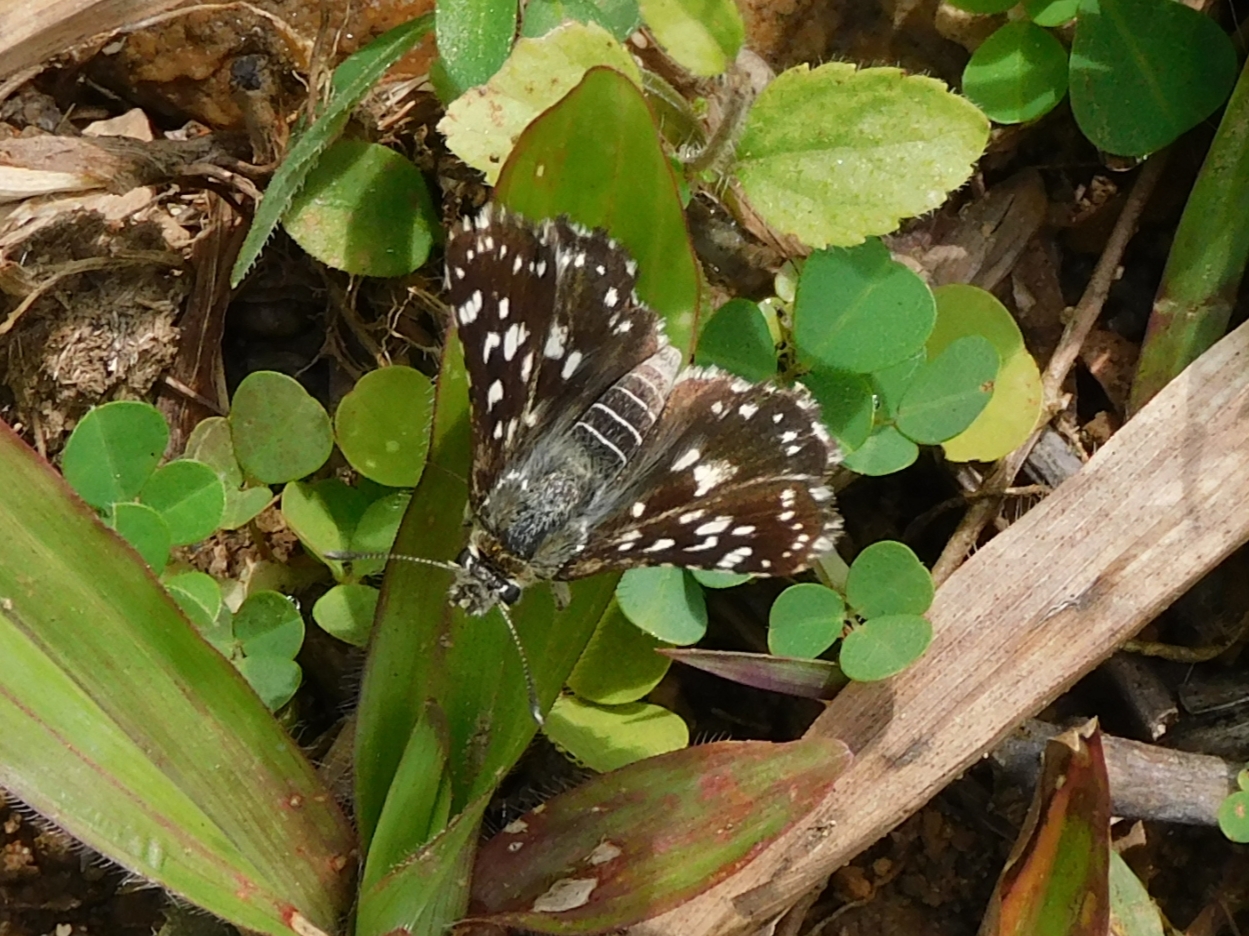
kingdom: Animalia
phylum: Arthropoda
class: Insecta
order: Lepidoptera
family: Hesperiidae
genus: Spialia
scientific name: Spialia galba
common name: Indian skipper
